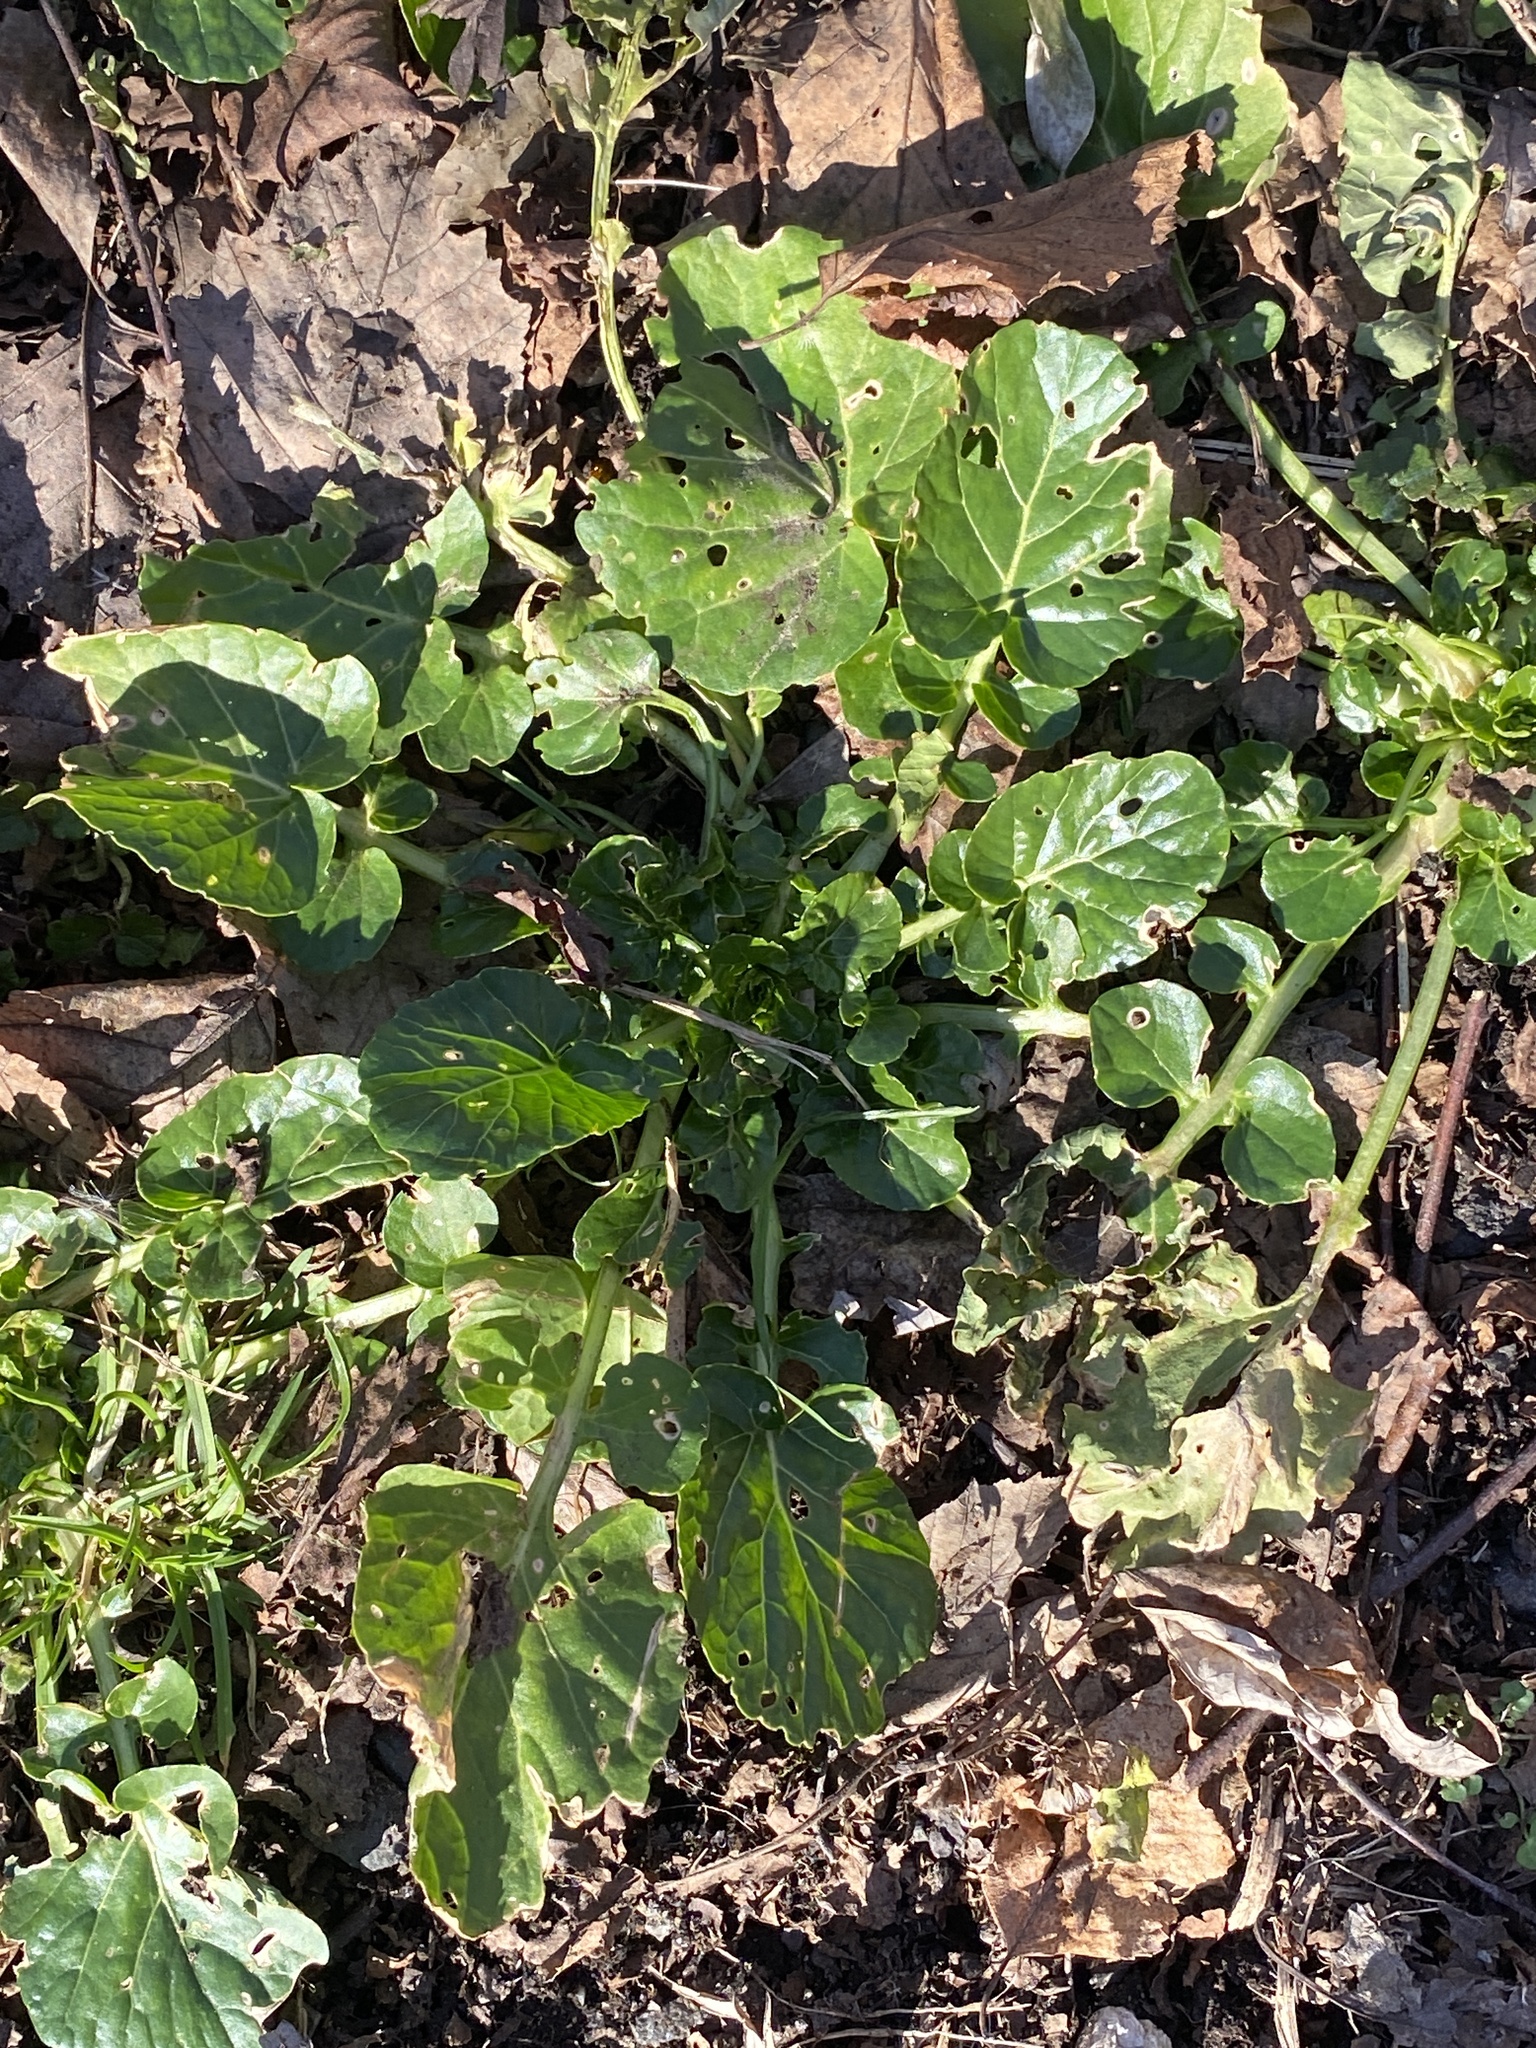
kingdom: Plantae
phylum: Tracheophyta
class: Magnoliopsida
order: Brassicales
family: Brassicaceae
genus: Barbarea
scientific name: Barbarea vulgaris
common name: Cressy-greens
